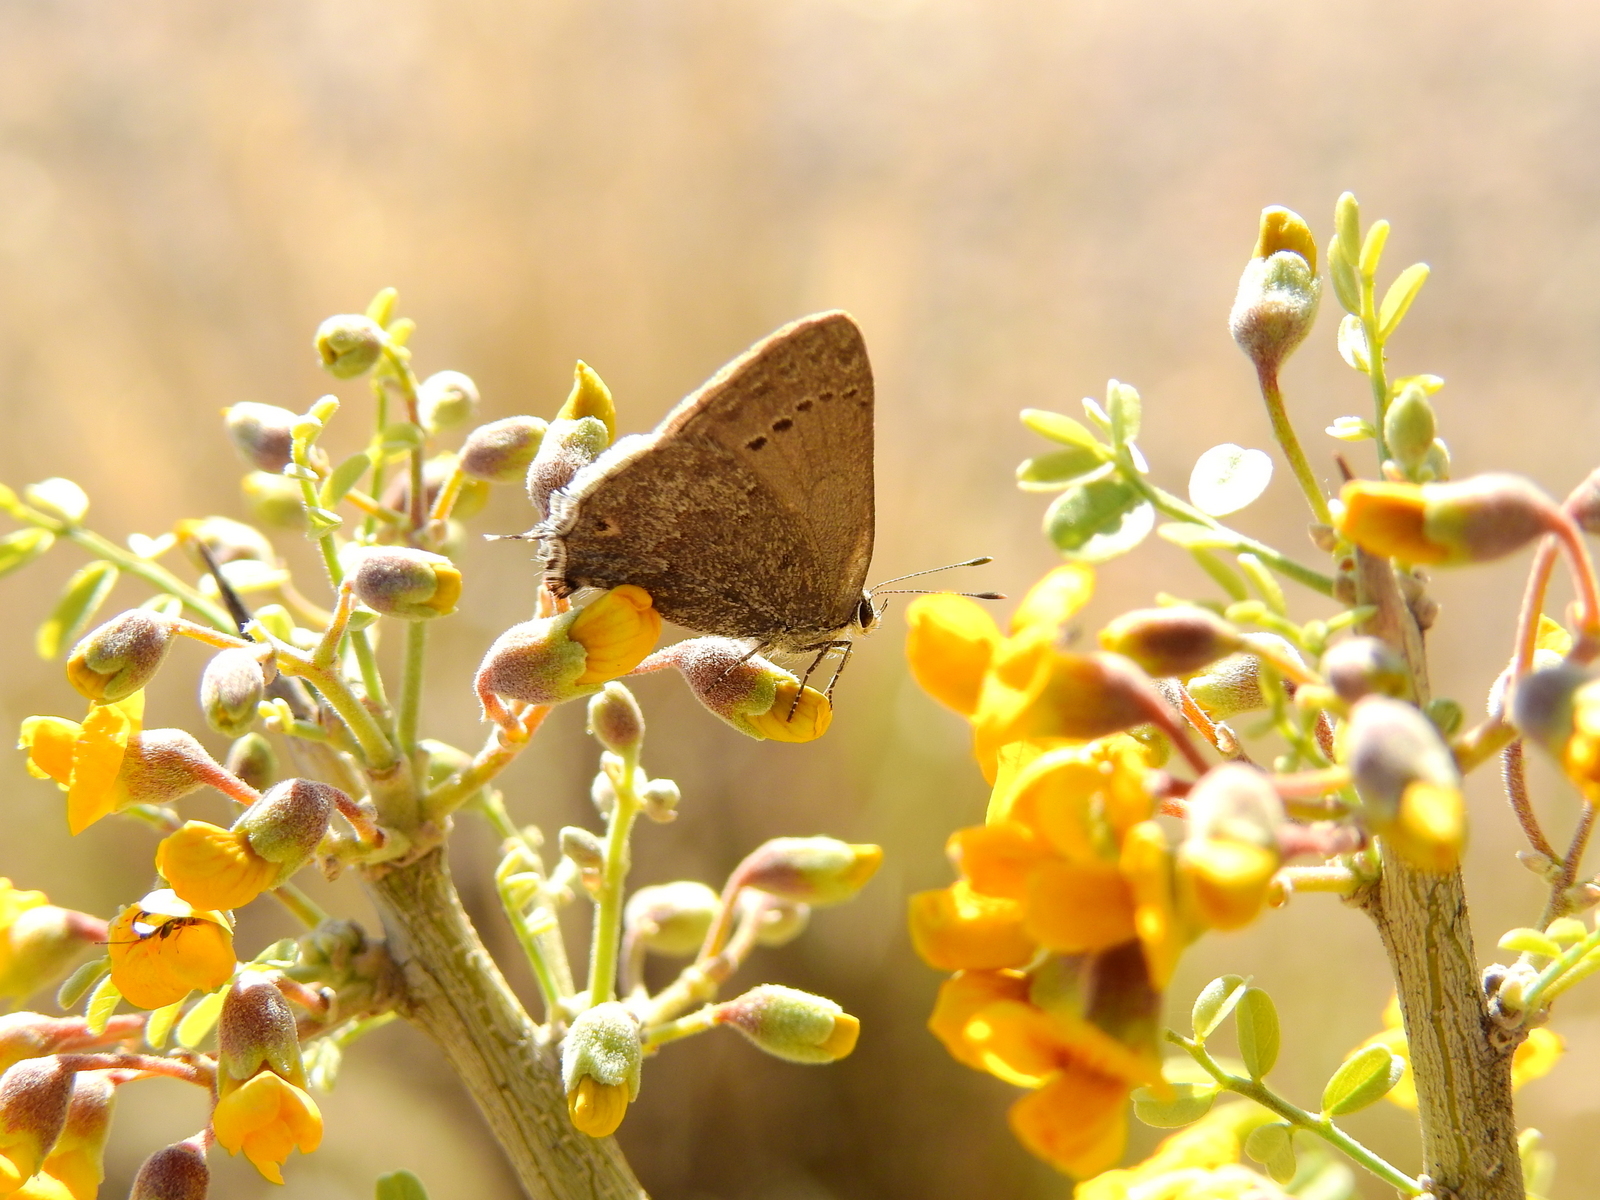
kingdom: Animalia
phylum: Arthropoda
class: Insecta
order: Lepidoptera
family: Lycaenidae
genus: Strymon
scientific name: Strymon
